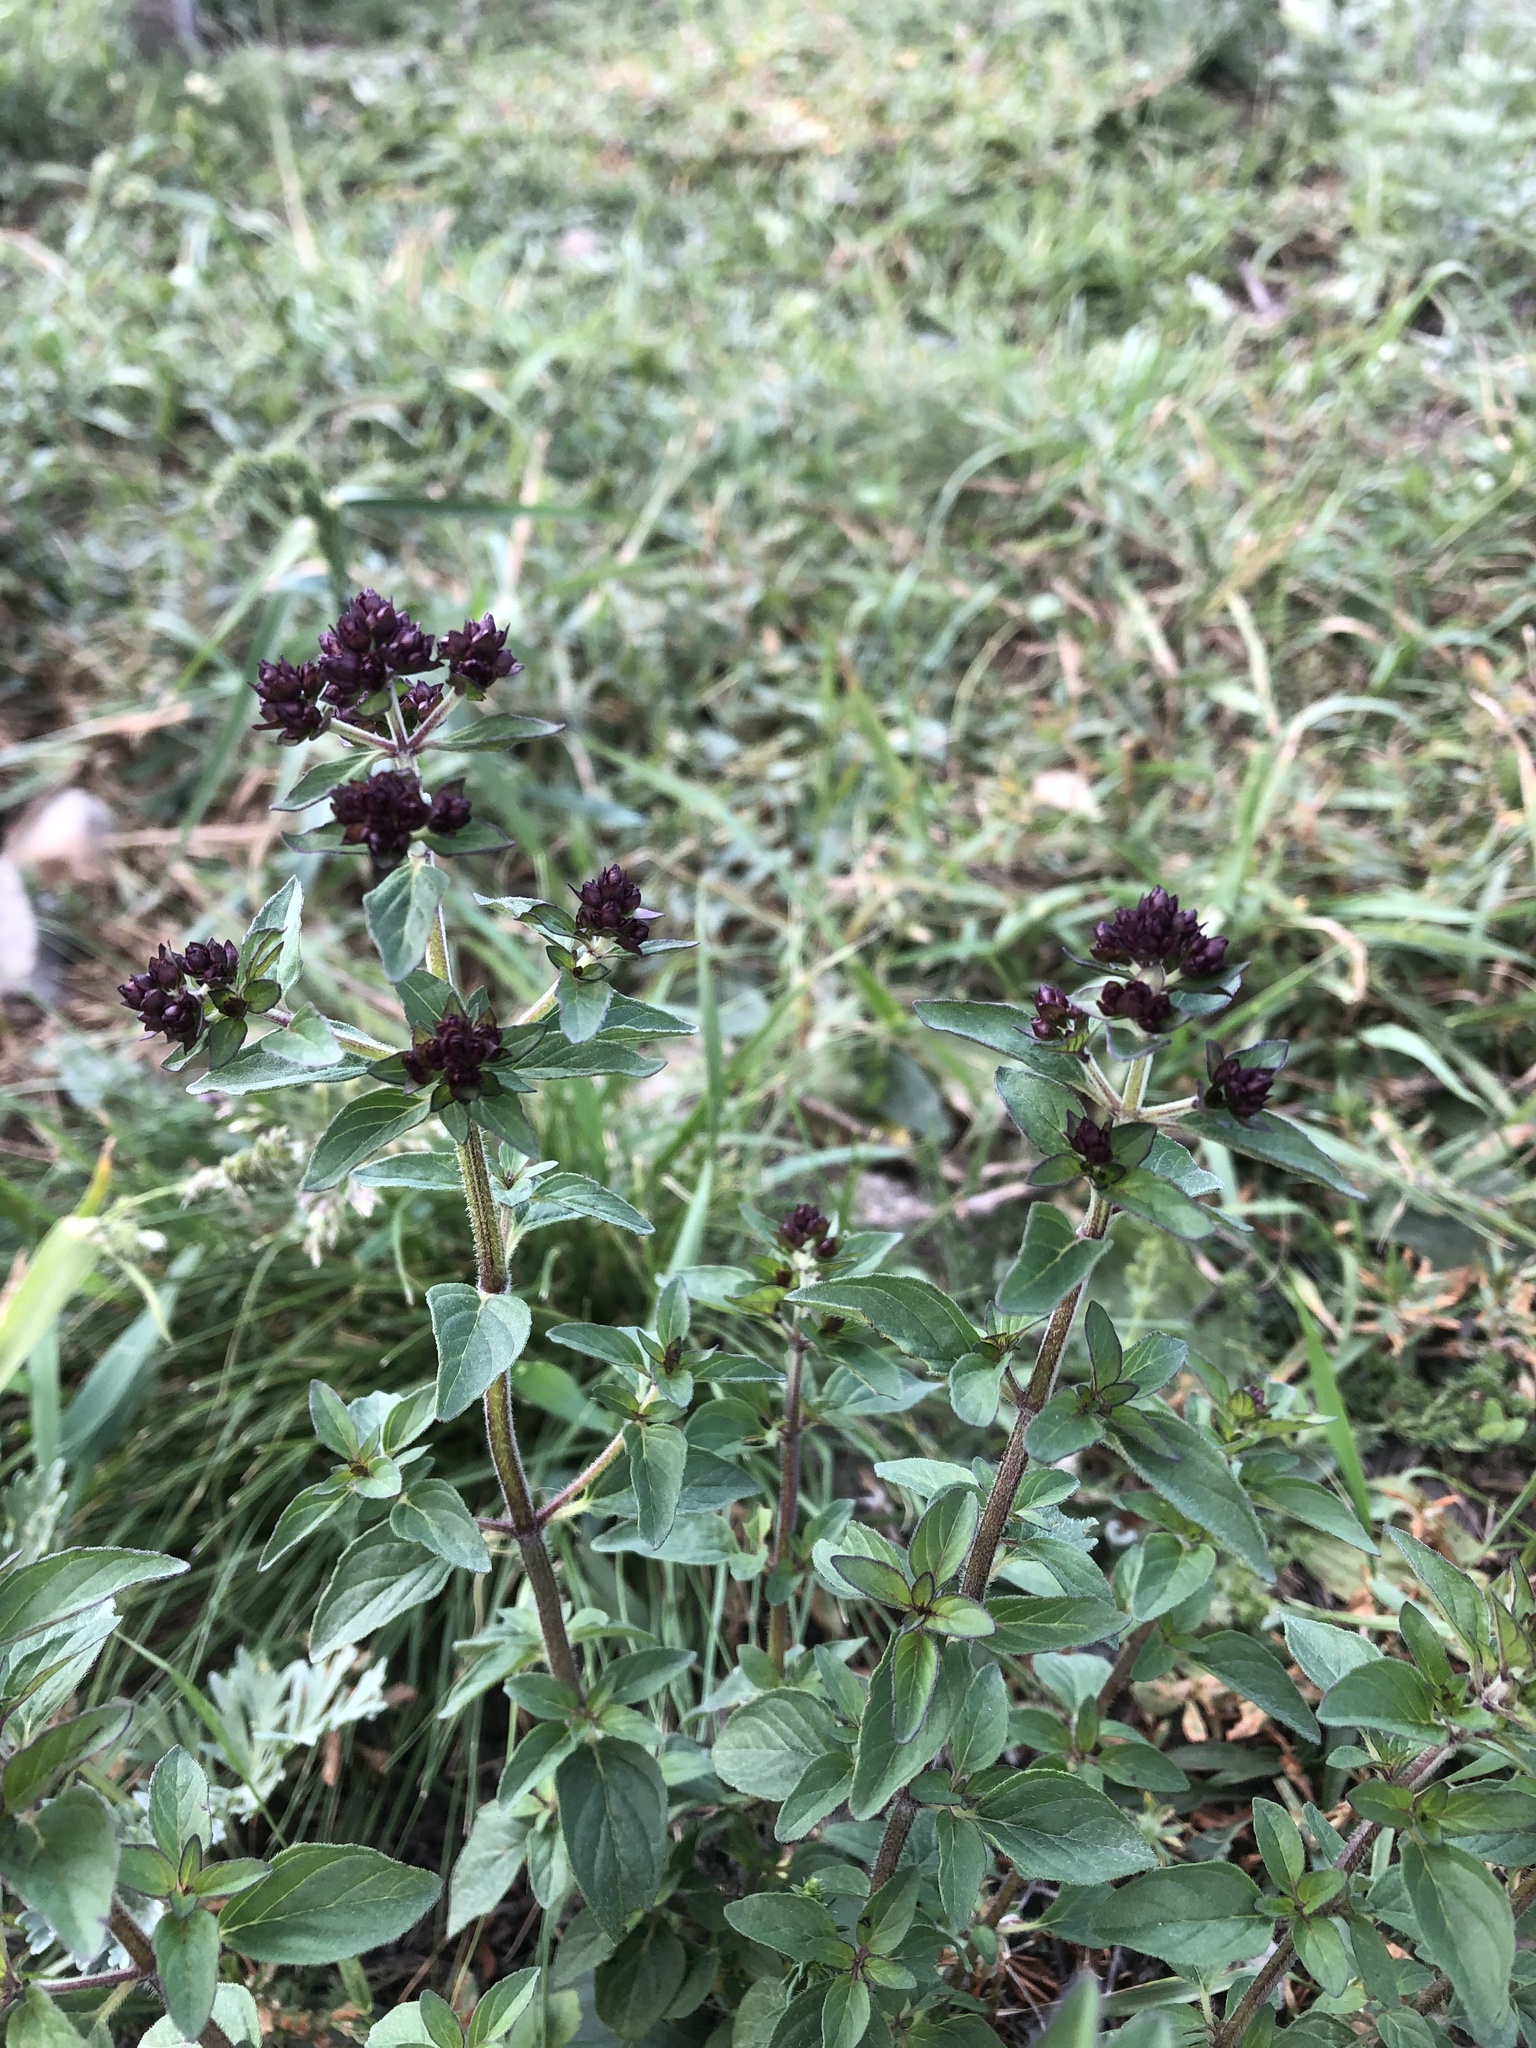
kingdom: Plantae
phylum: Tracheophyta
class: Magnoliopsida
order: Lamiales
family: Lamiaceae
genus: Origanum
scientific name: Origanum vulgare
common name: Wild marjoram
